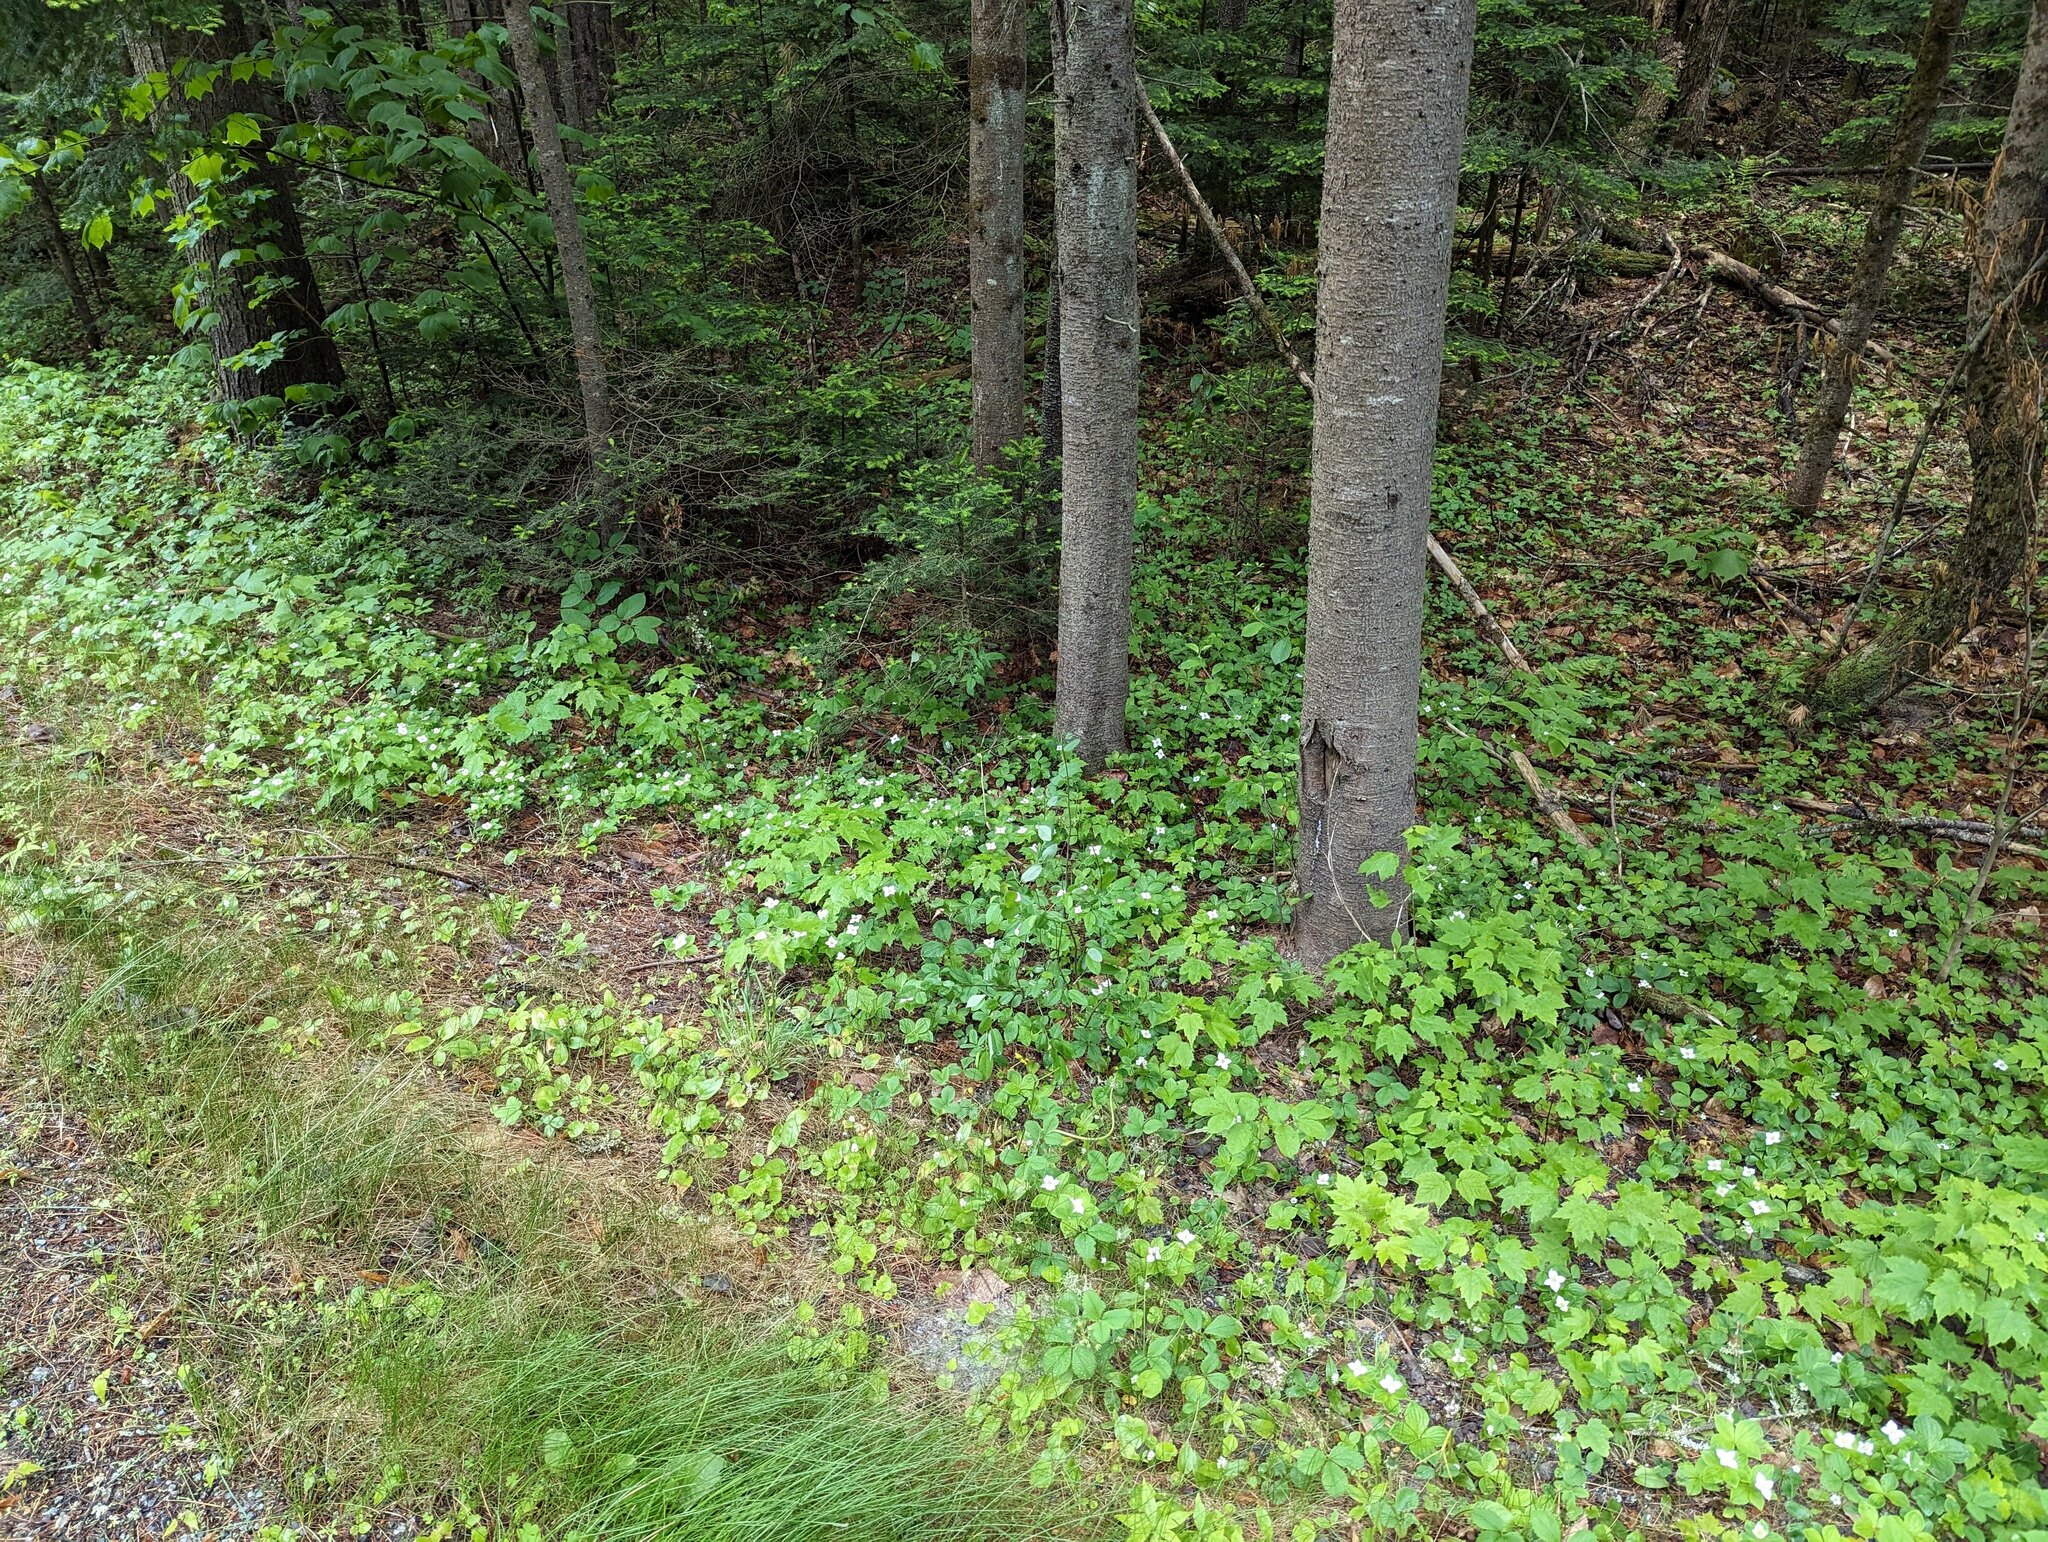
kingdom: Plantae
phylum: Tracheophyta
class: Magnoliopsida
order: Cornales
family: Cornaceae
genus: Cornus
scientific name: Cornus canadensis
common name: Creeping dogwood
